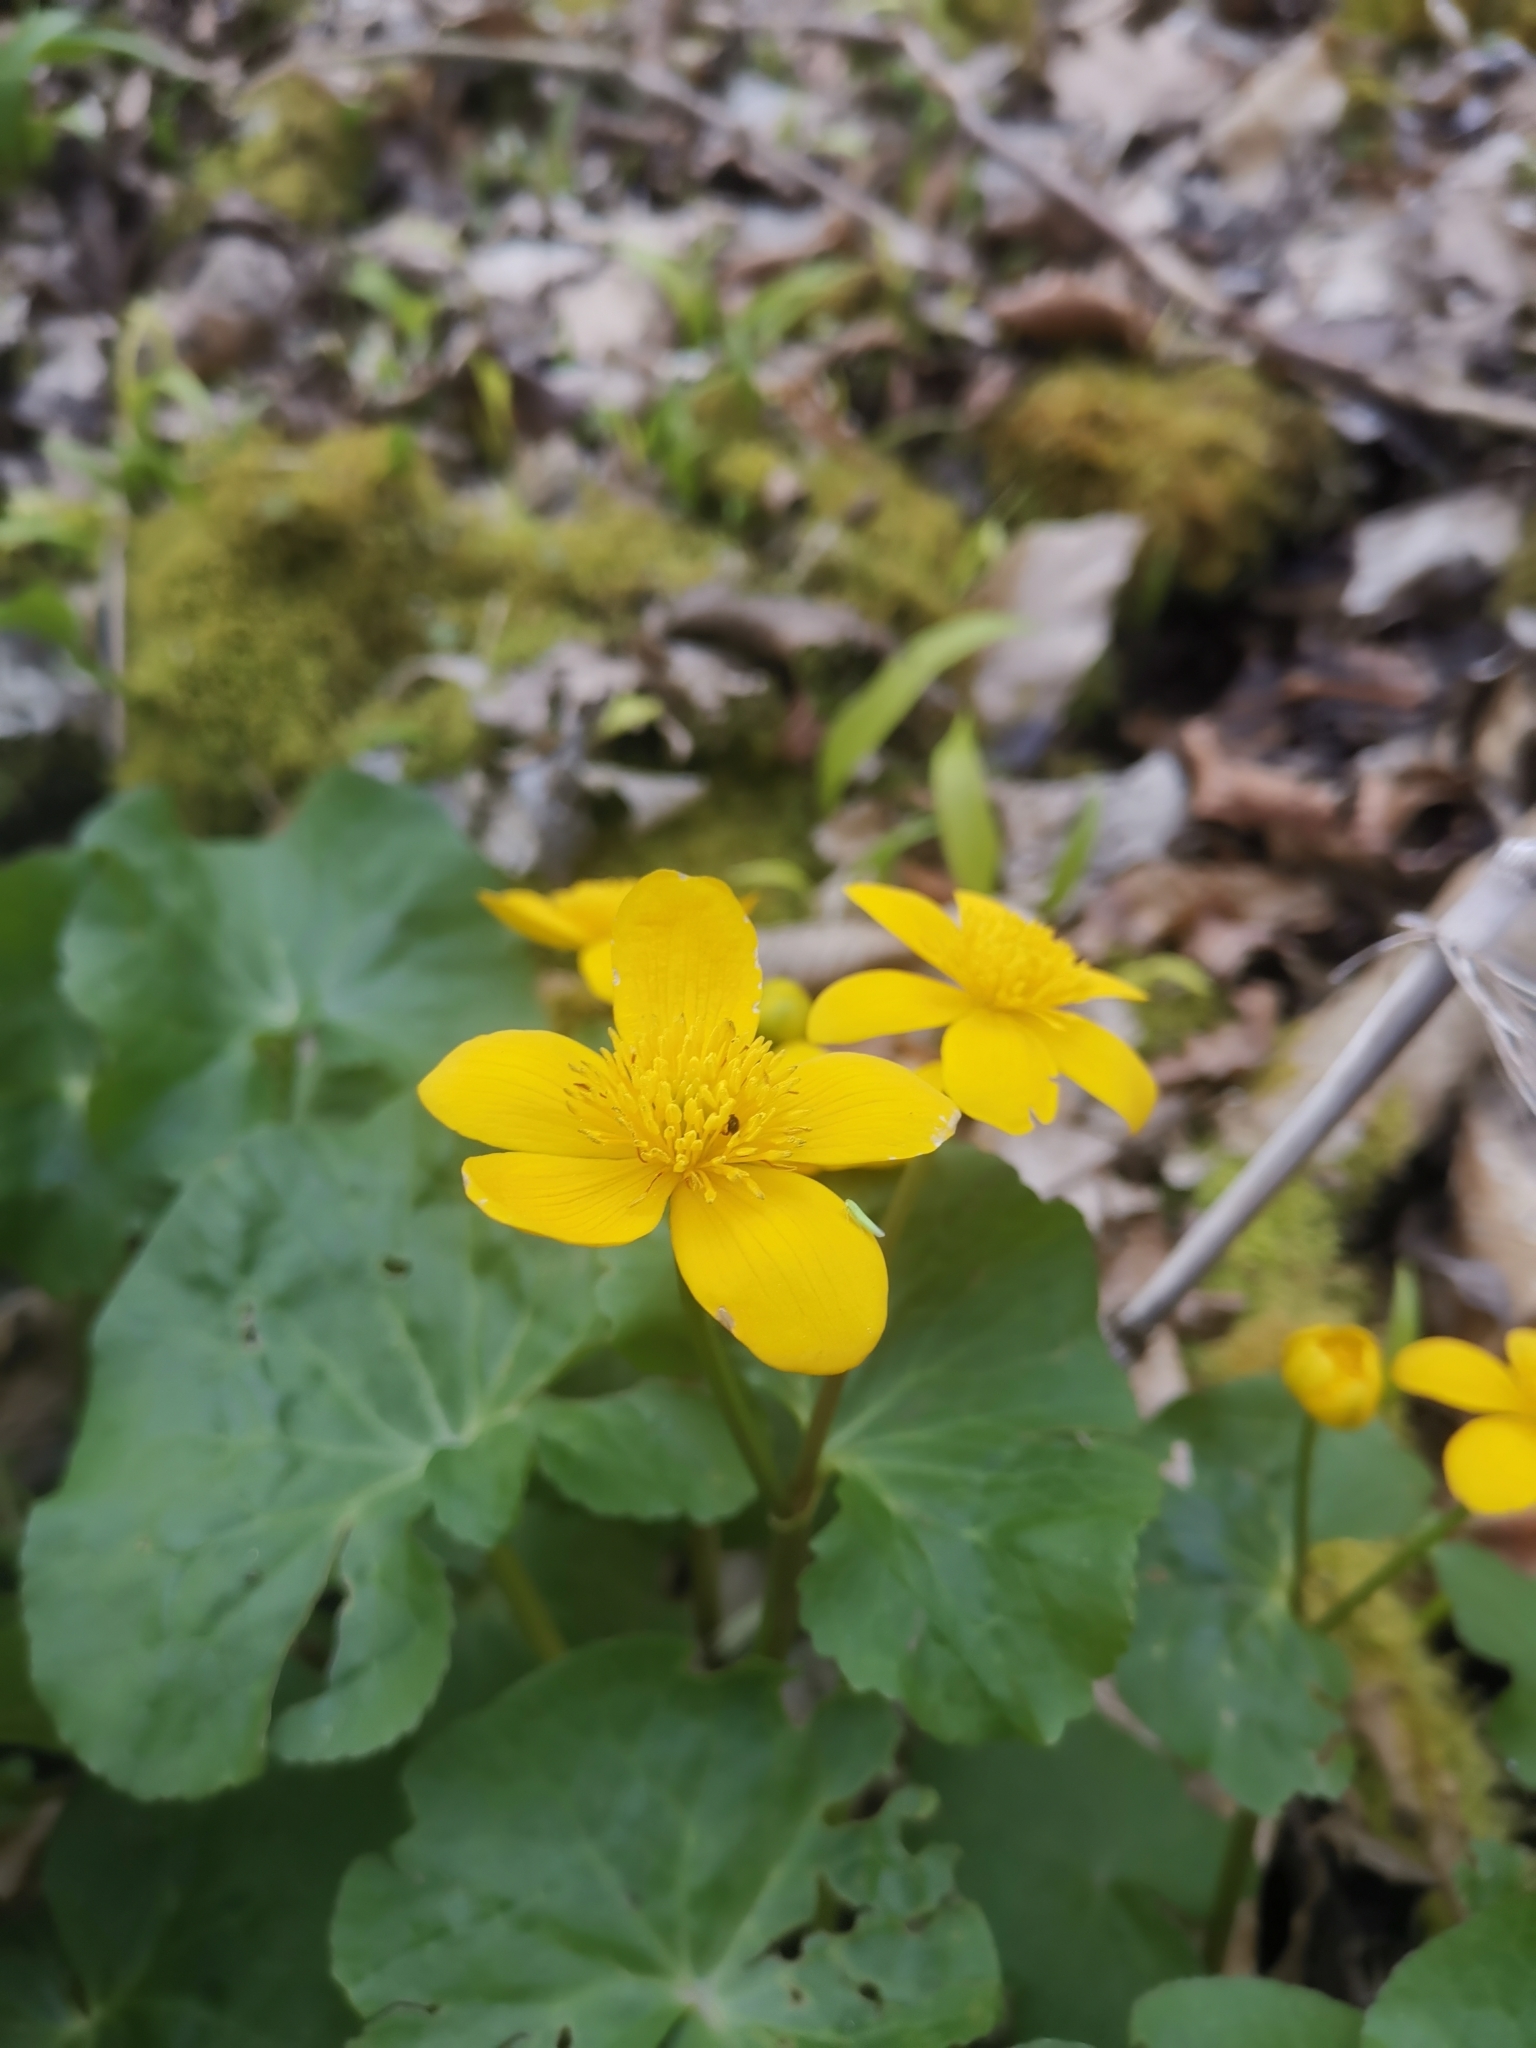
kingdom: Plantae
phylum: Tracheophyta
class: Magnoliopsida
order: Ranunculales
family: Ranunculaceae
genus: Caltha
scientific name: Caltha palustris
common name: Marsh marigold
